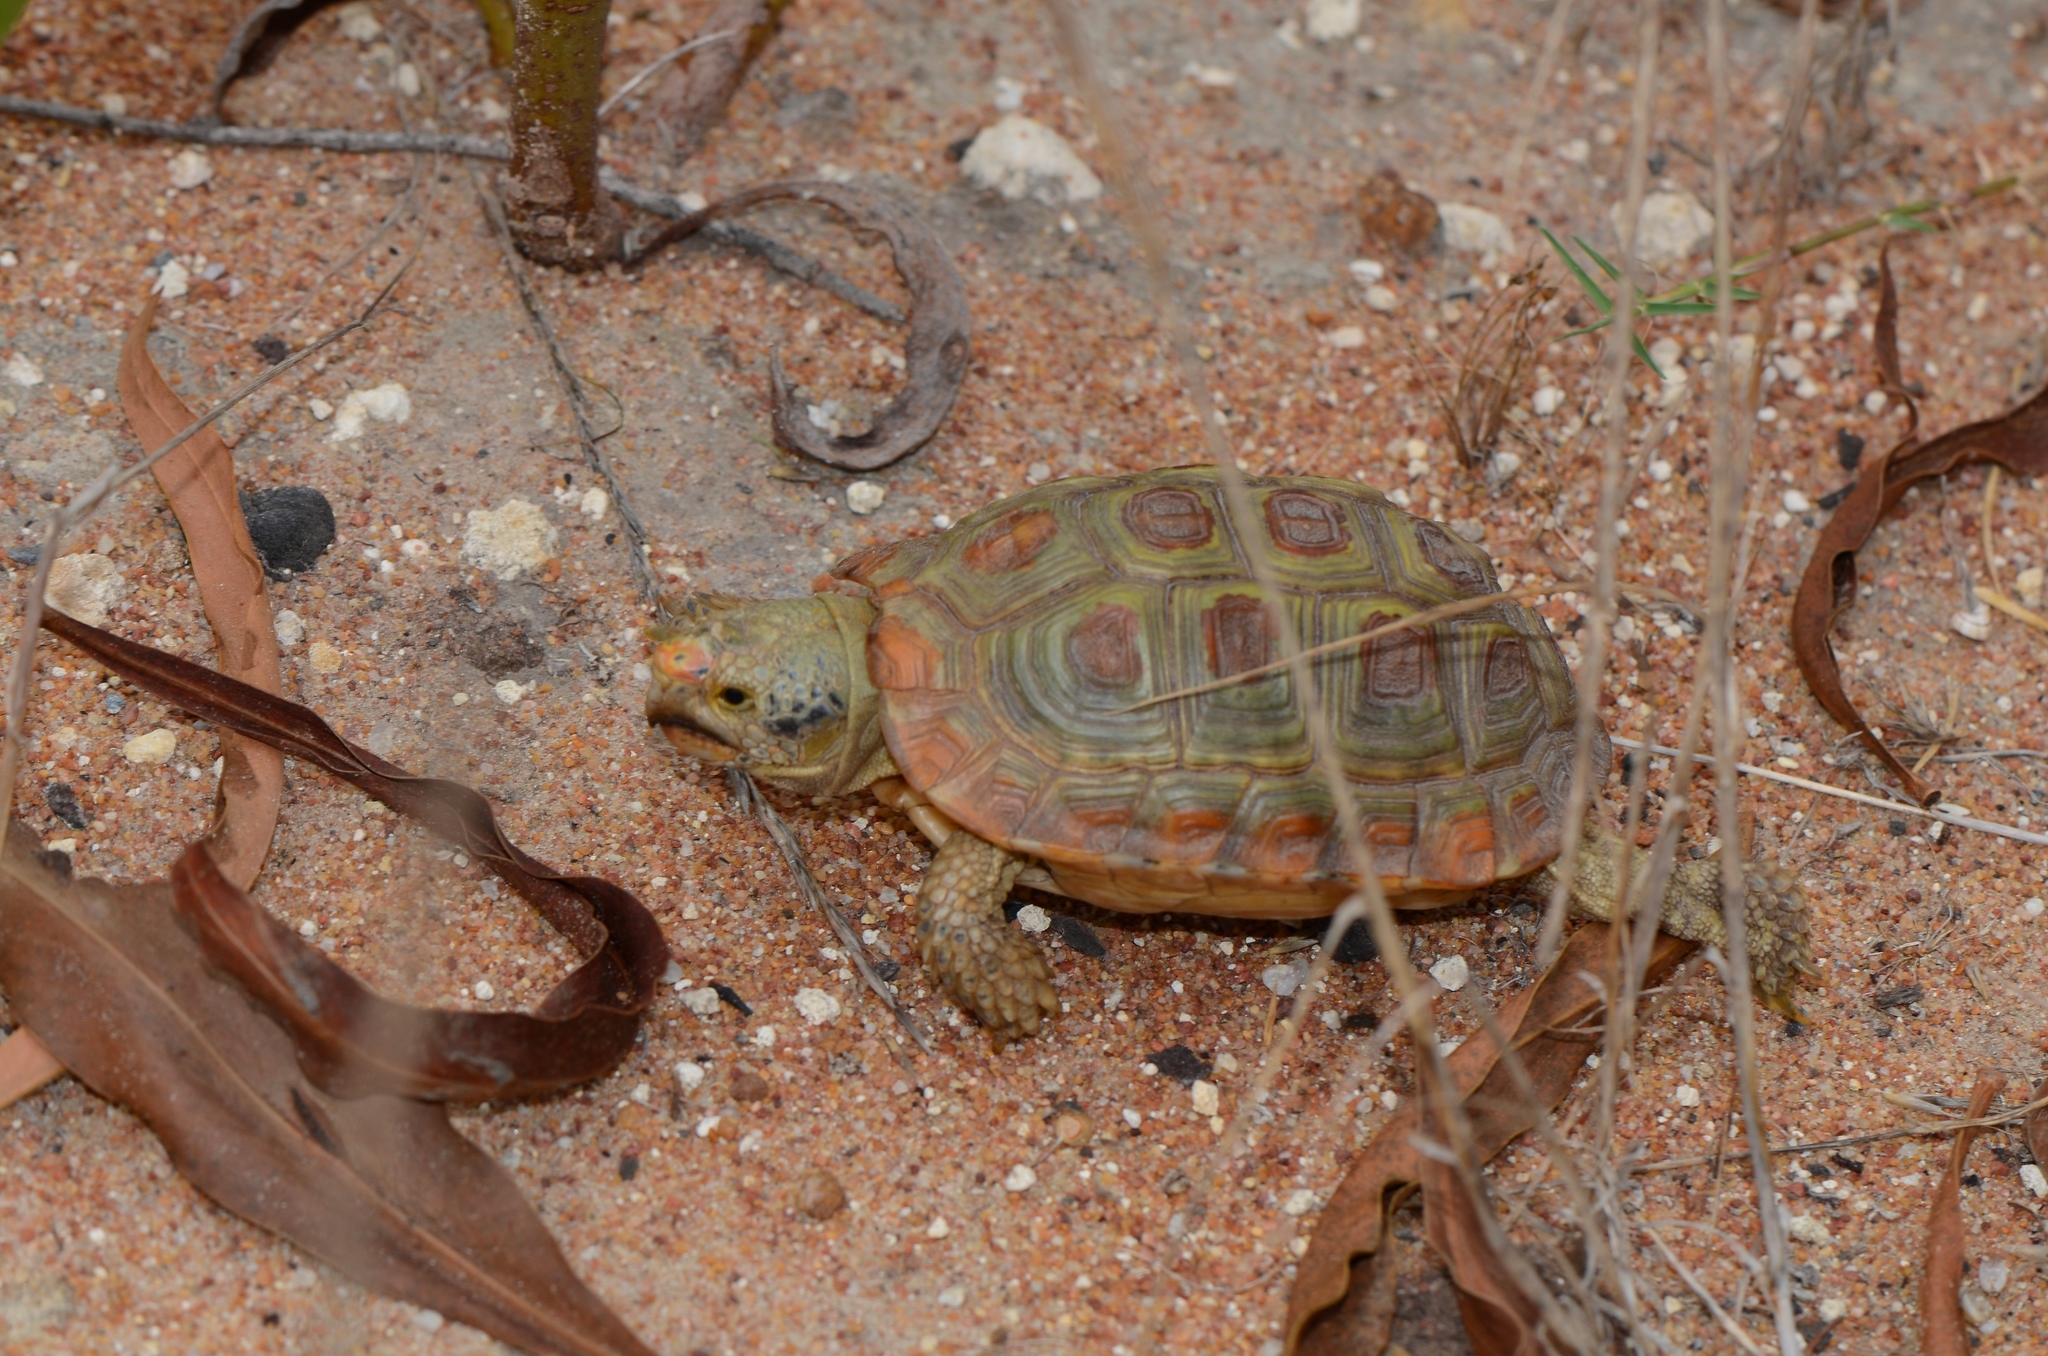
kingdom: Animalia
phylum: Chordata
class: Testudines
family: Testudinidae
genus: Homopus
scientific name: Homopus areolatus
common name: Parrot-beaked tortoise
